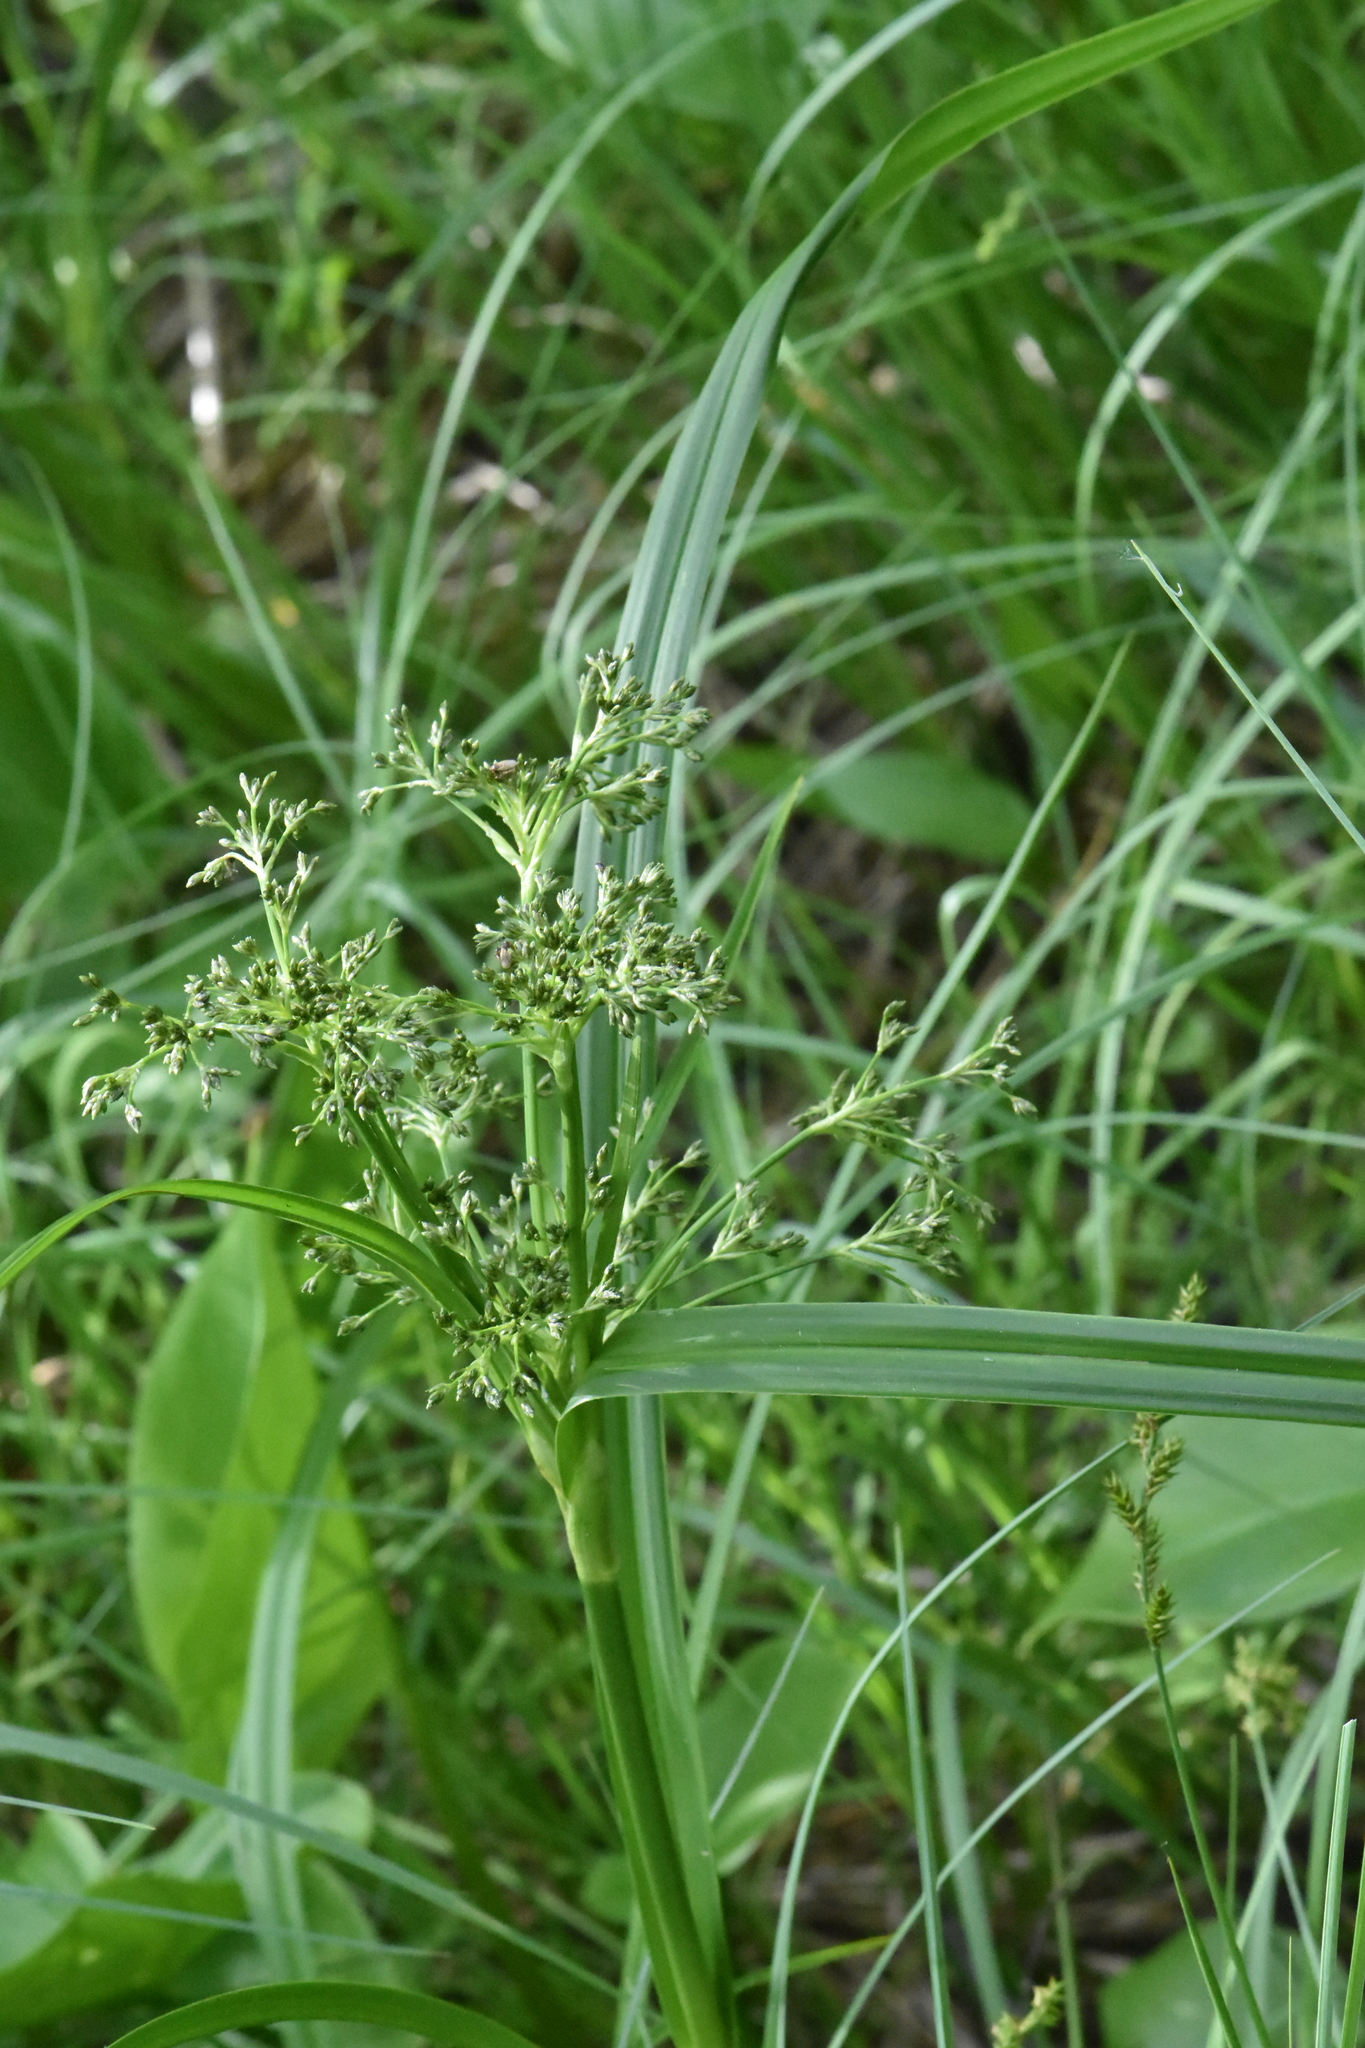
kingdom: Plantae
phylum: Tracheophyta
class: Liliopsida
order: Poales
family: Cyperaceae
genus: Scirpus
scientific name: Scirpus sylvaticus
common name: Wood club-rush
